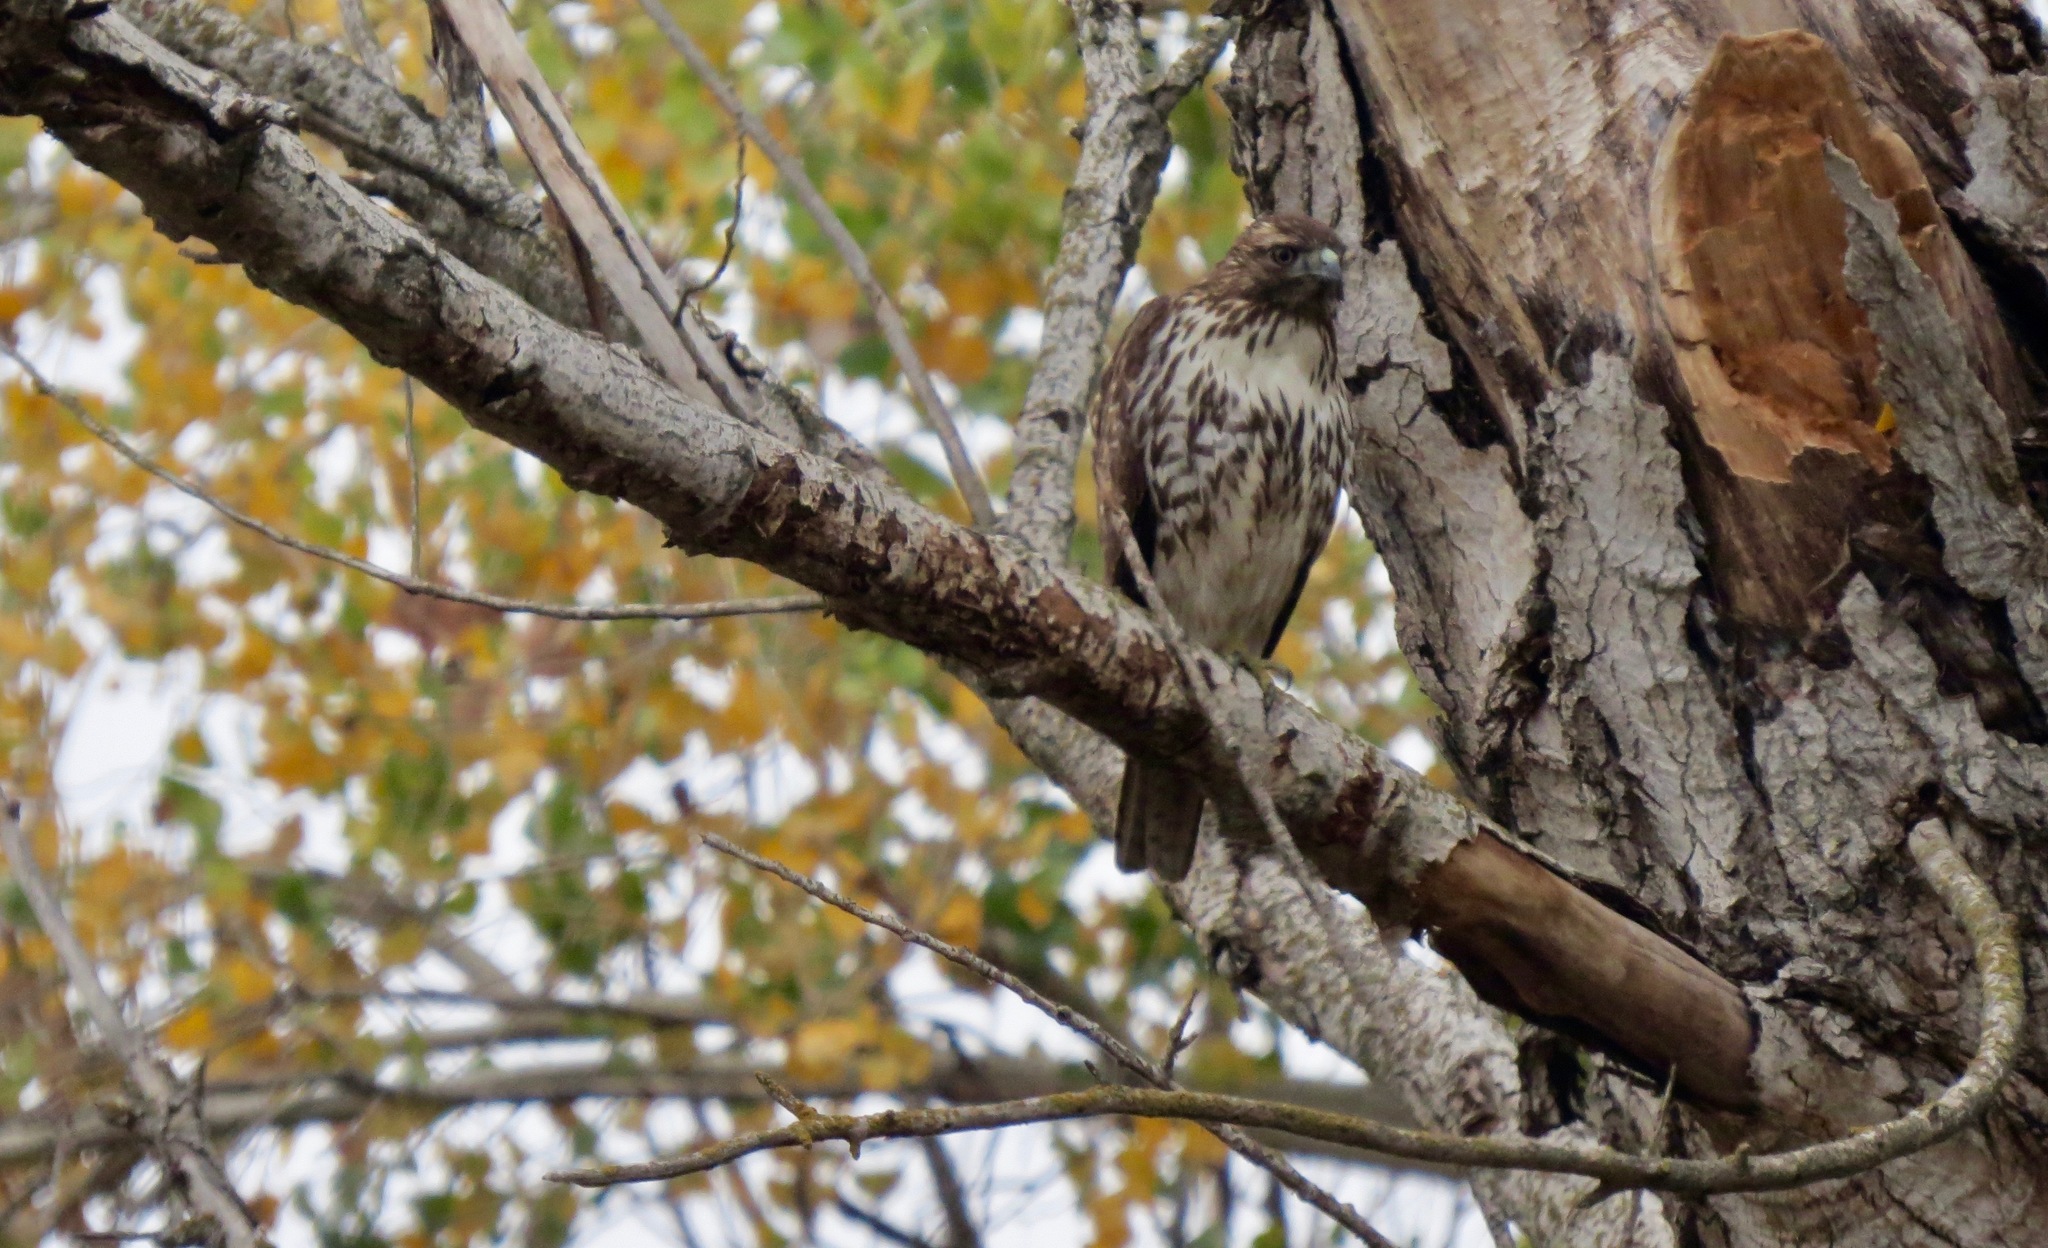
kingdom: Animalia
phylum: Chordata
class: Aves
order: Accipitriformes
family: Accipitridae
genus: Buteo
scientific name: Buteo jamaicensis
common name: Red-tailed hawk
